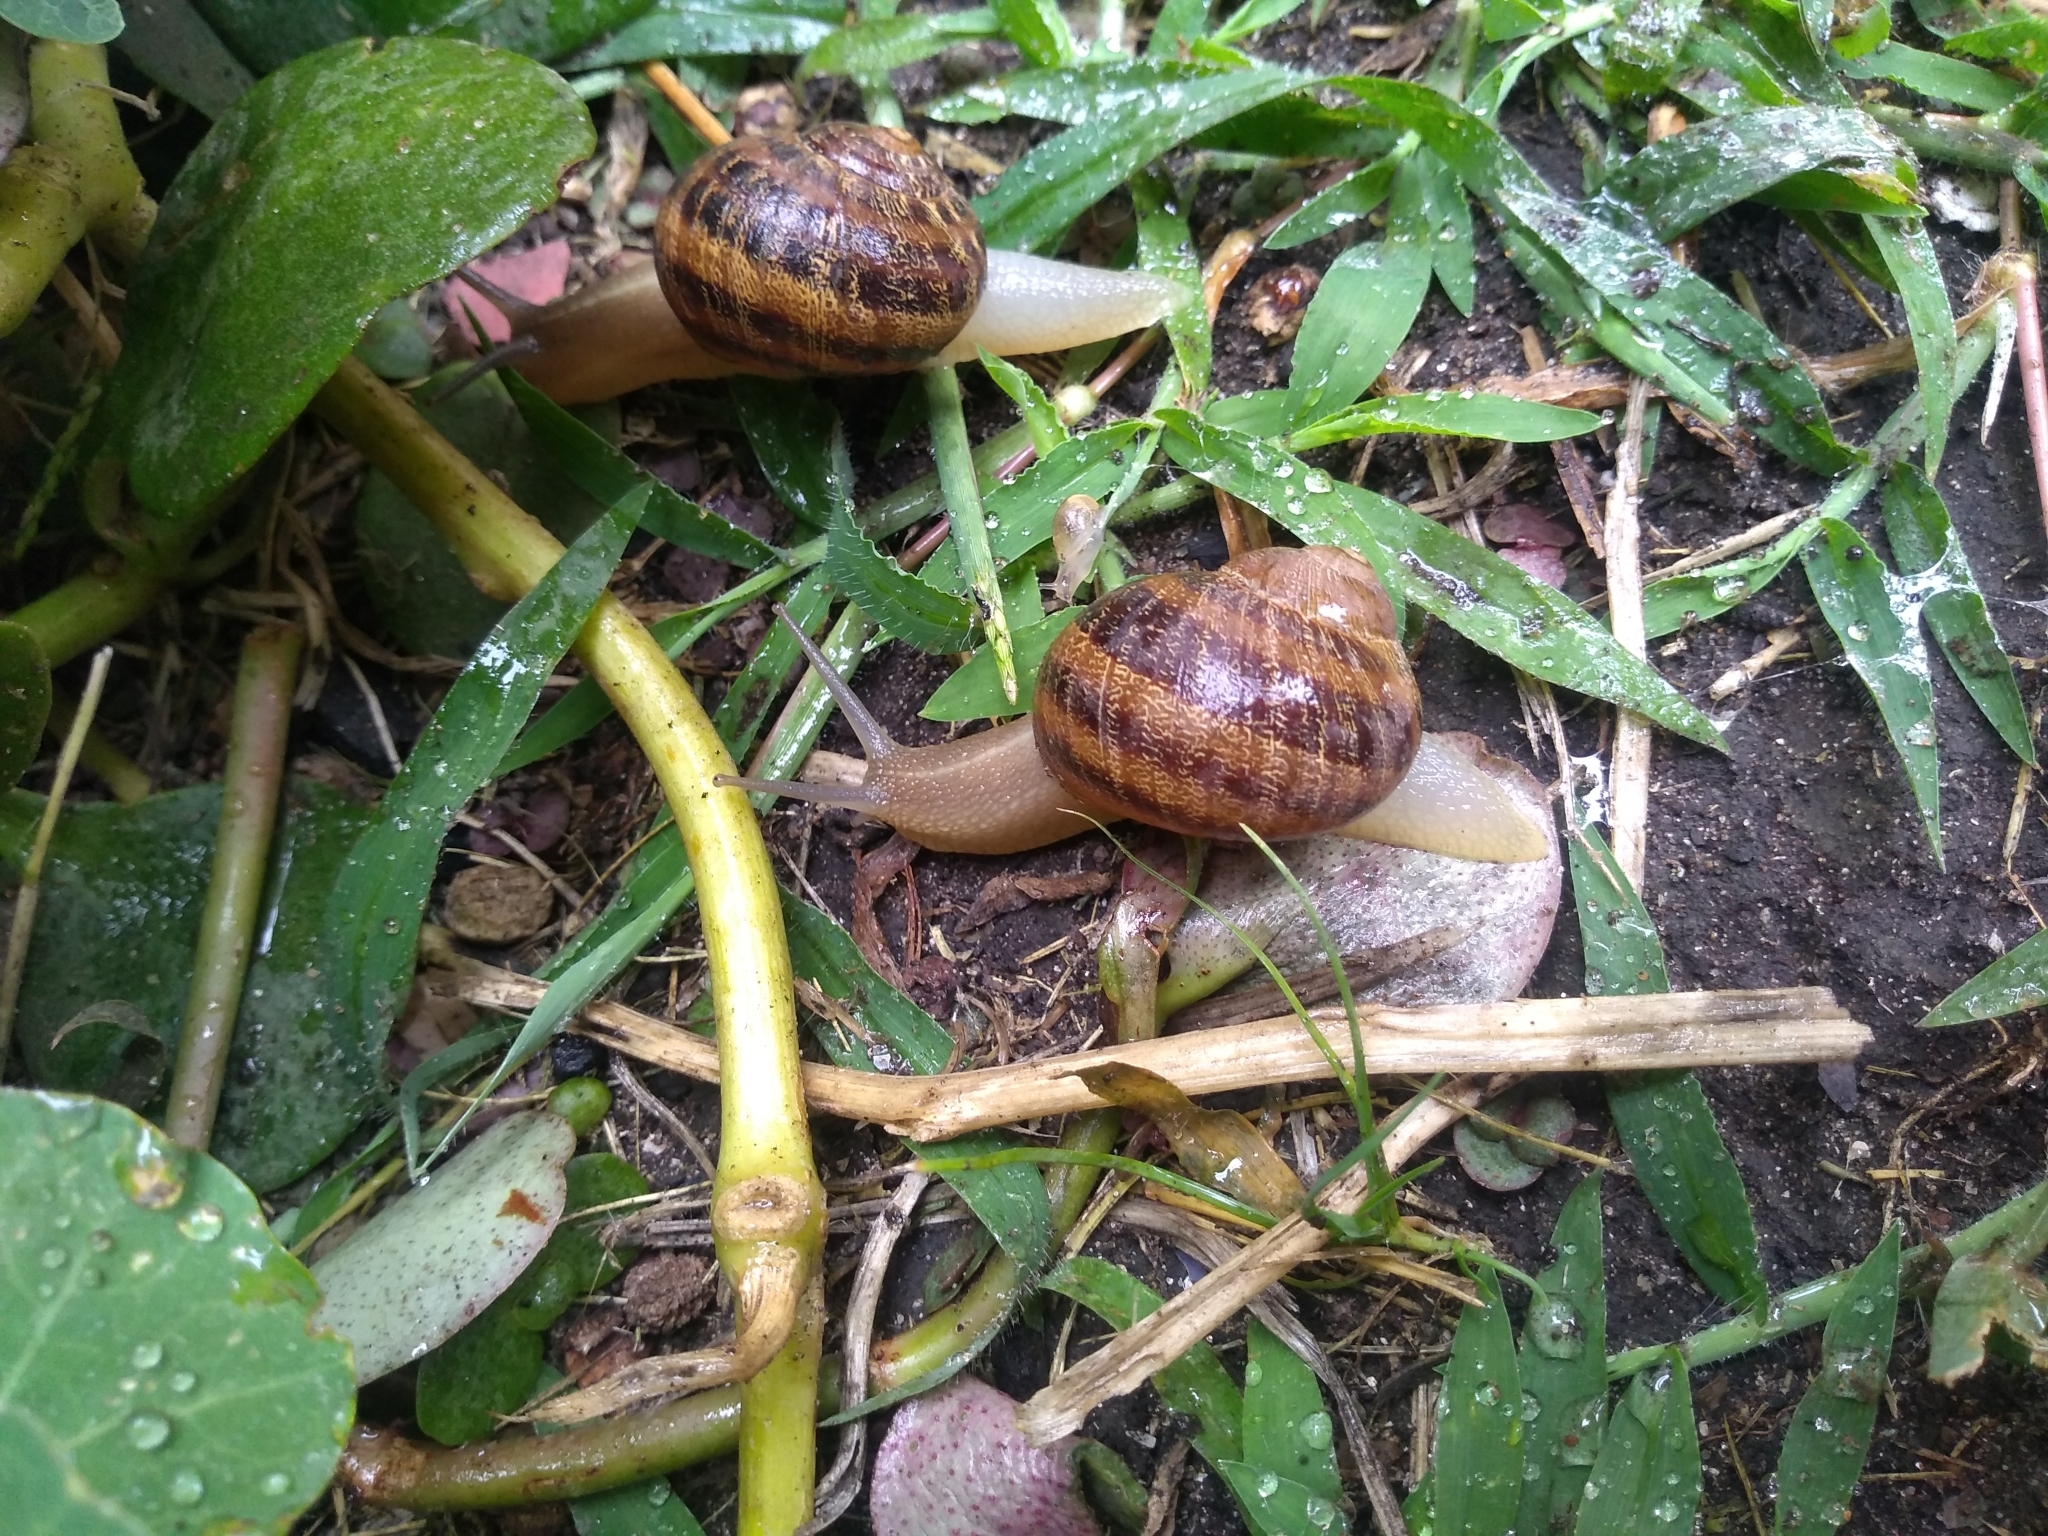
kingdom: Animalia
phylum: Mollusca
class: Gastropoda
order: Stylommatophora
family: Helicidae
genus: Cornu
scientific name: Cornu aspersum
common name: Brown garden snail
